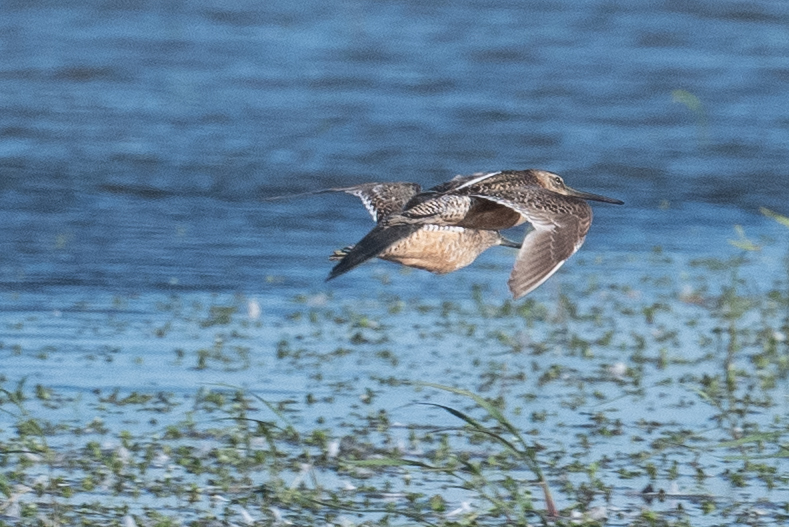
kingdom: Animalia
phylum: Chordata
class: Aves
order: Charadriiformes
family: Scolopacidae
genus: Limnodromus
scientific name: Limnodromus scolopaceus
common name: Long-billed dowitcher
